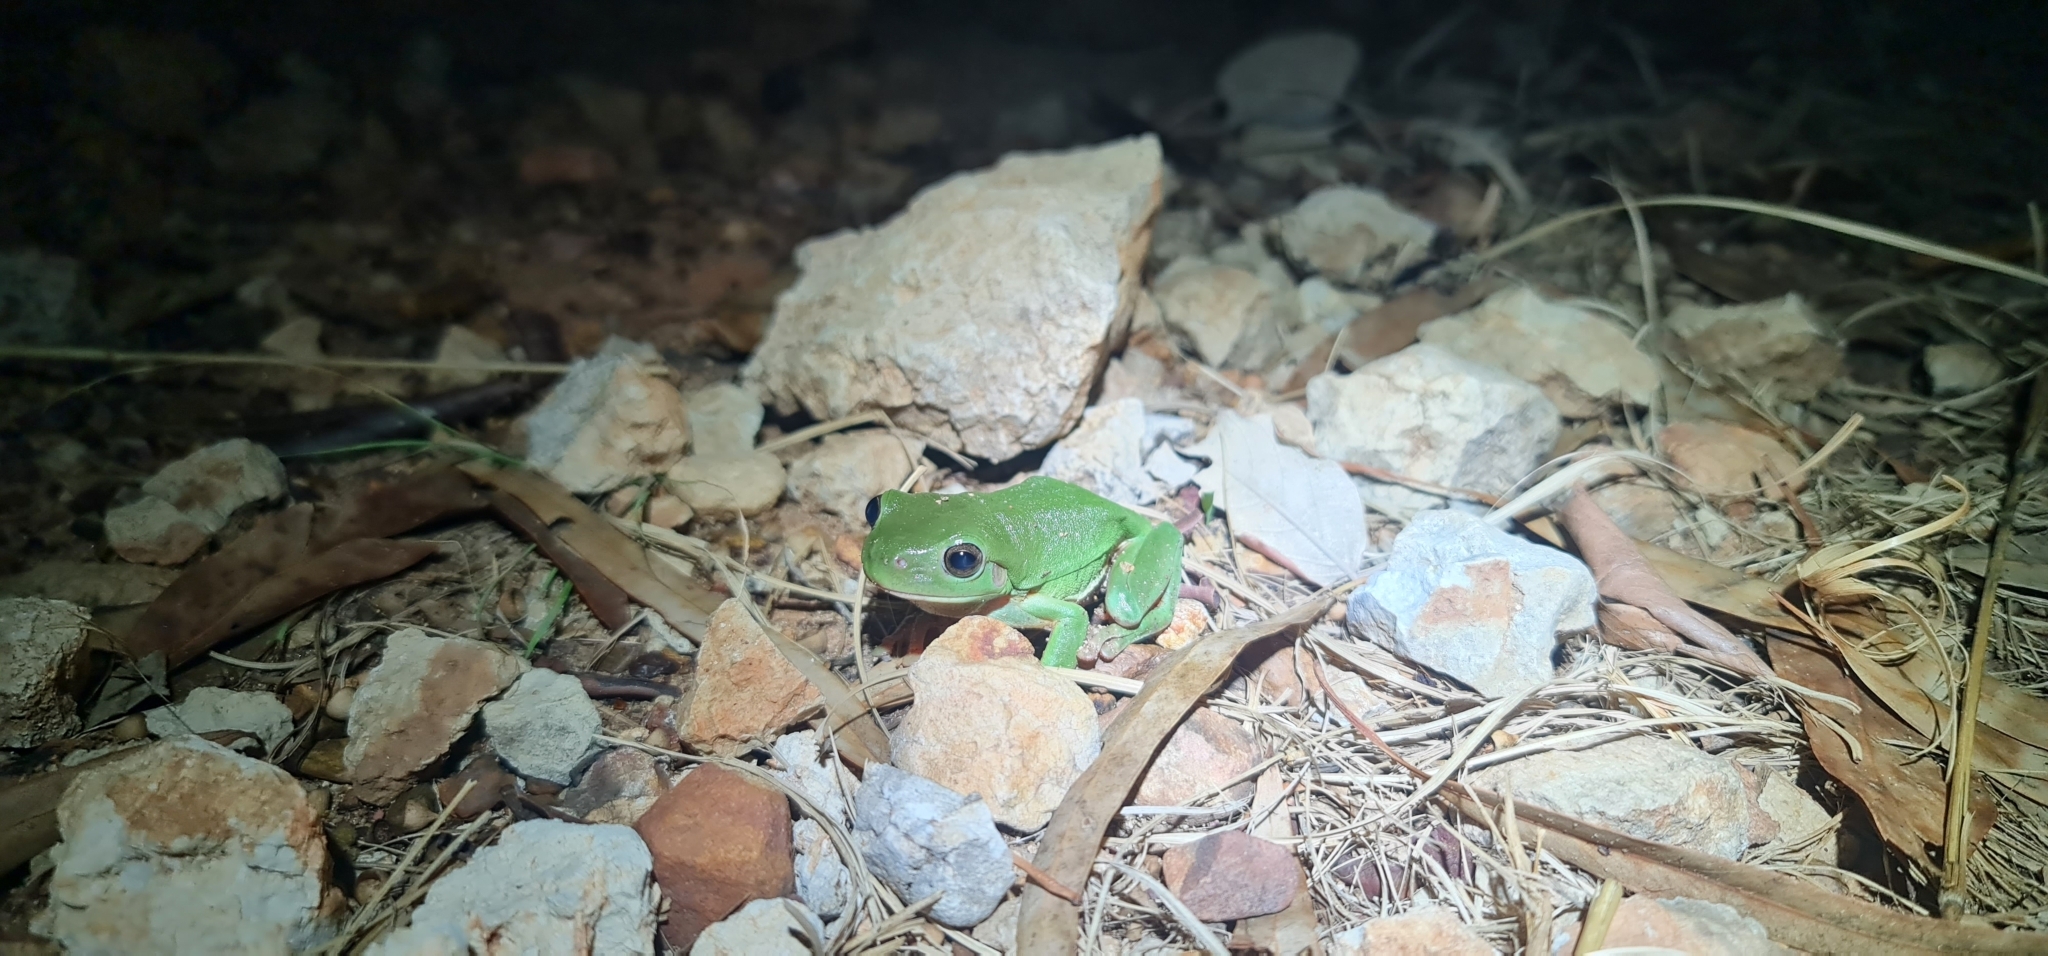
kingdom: Animalia
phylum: Chordata
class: Amphibia
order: Anura
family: Pelodryadidae
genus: Ranoidea
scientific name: Ranoidea caerulea
